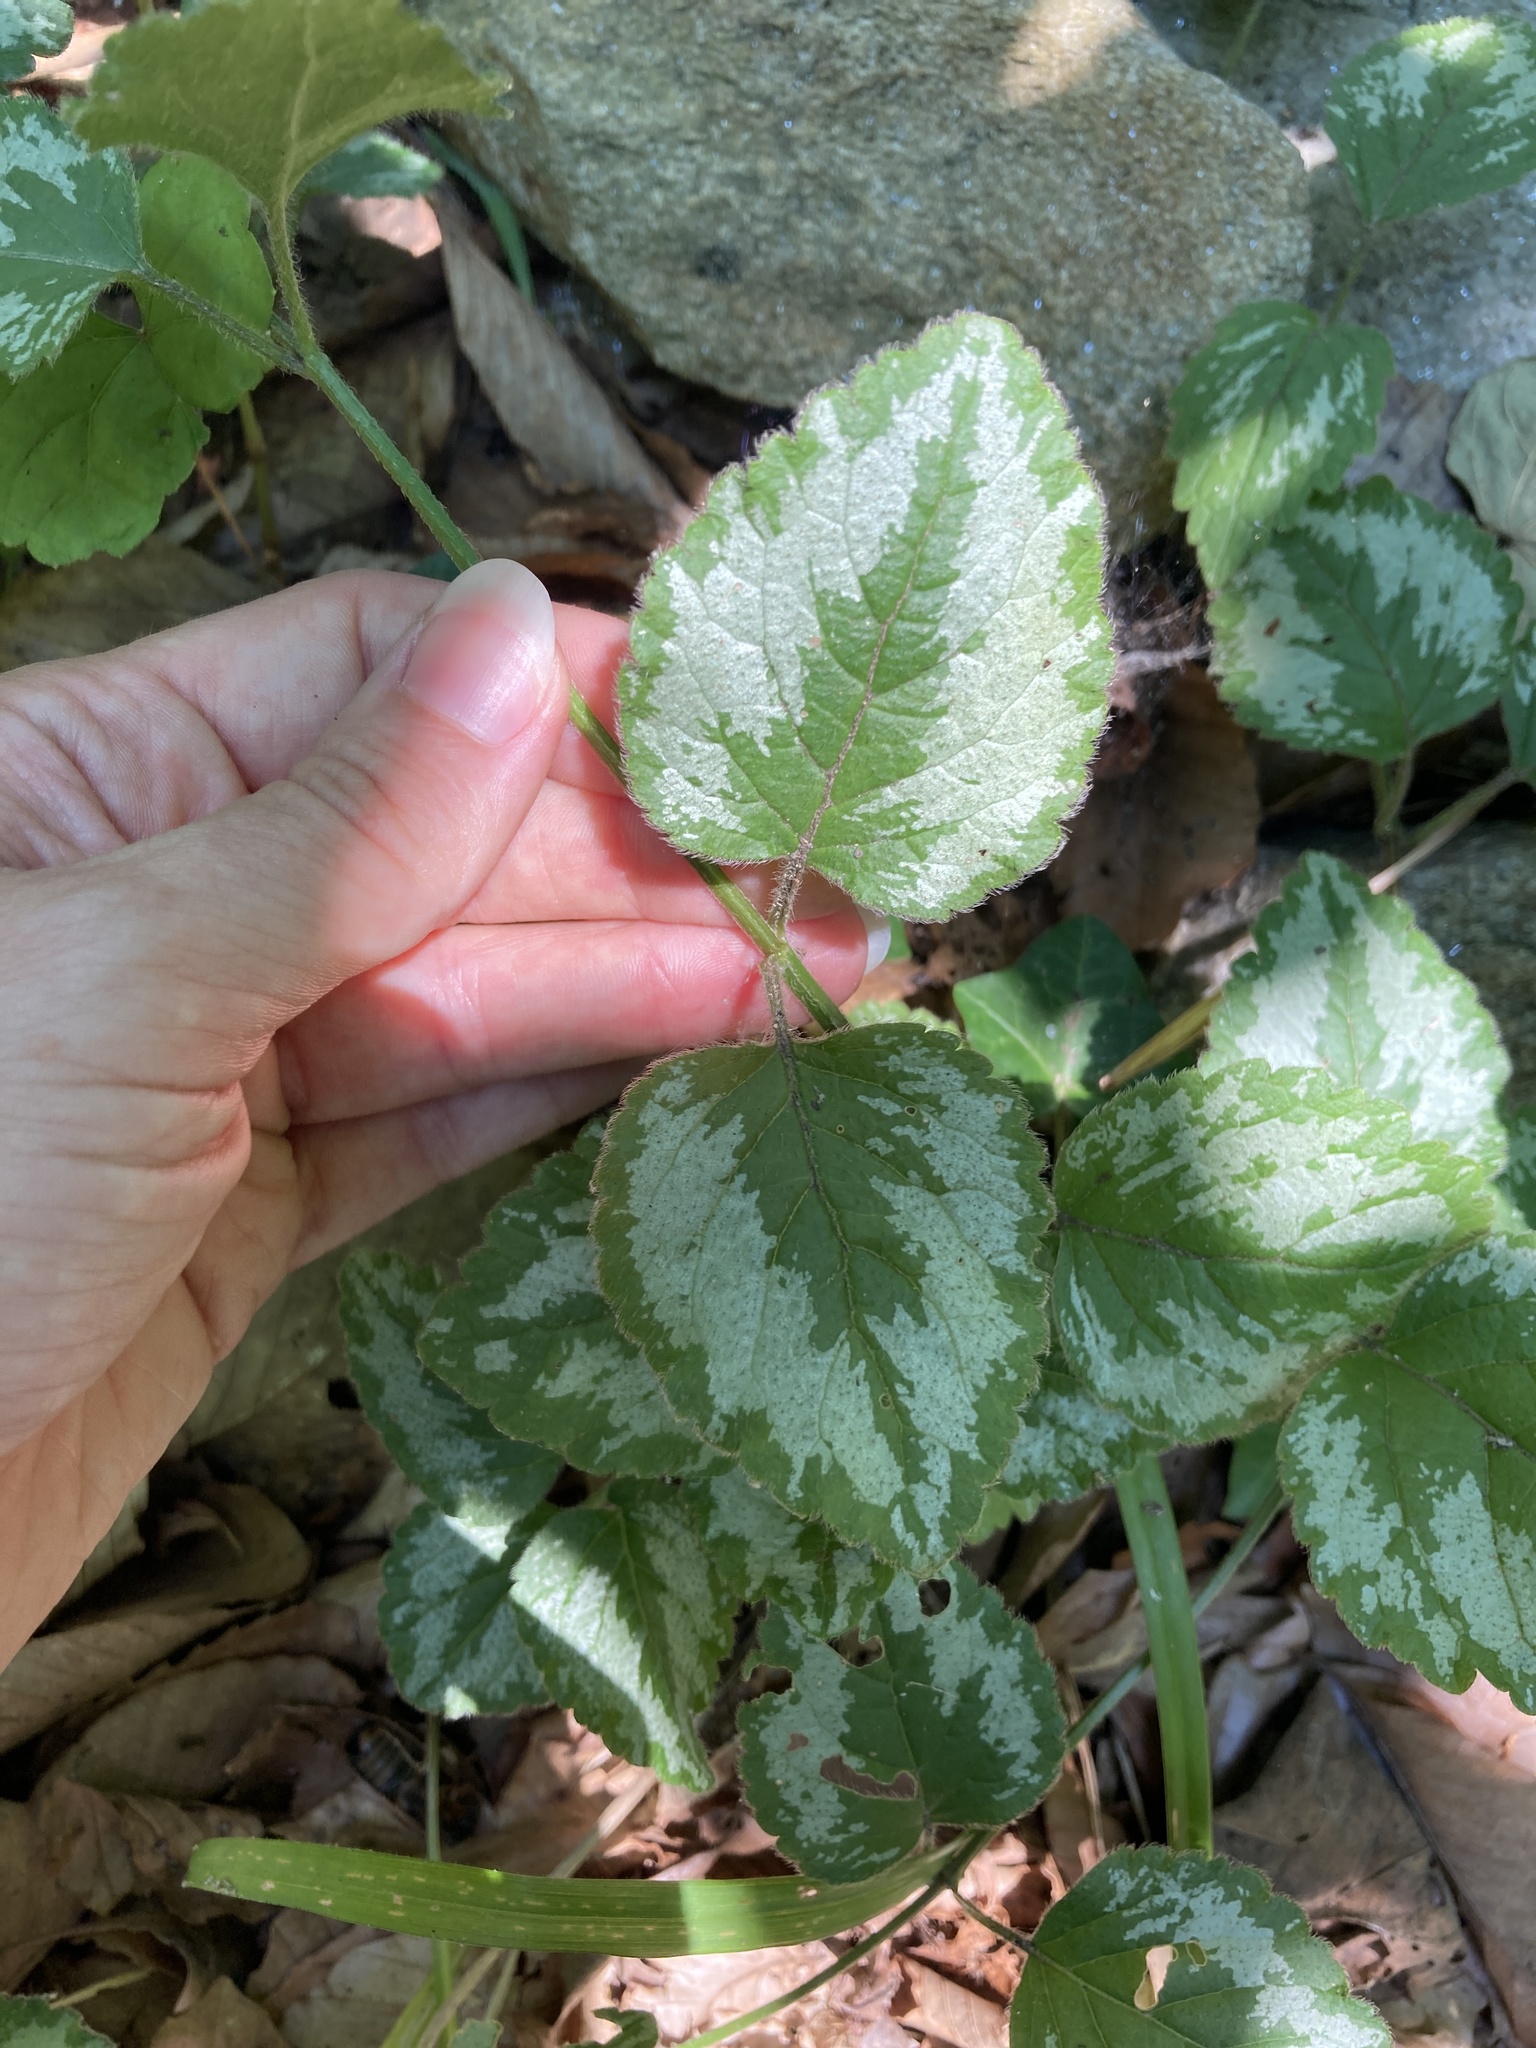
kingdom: Plantae
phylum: Tracheophyta
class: Magnoliopsida
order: Lamiales
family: Lamiaceae
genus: Lamium
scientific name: Lamium galeobdolon
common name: Yellow archangel
